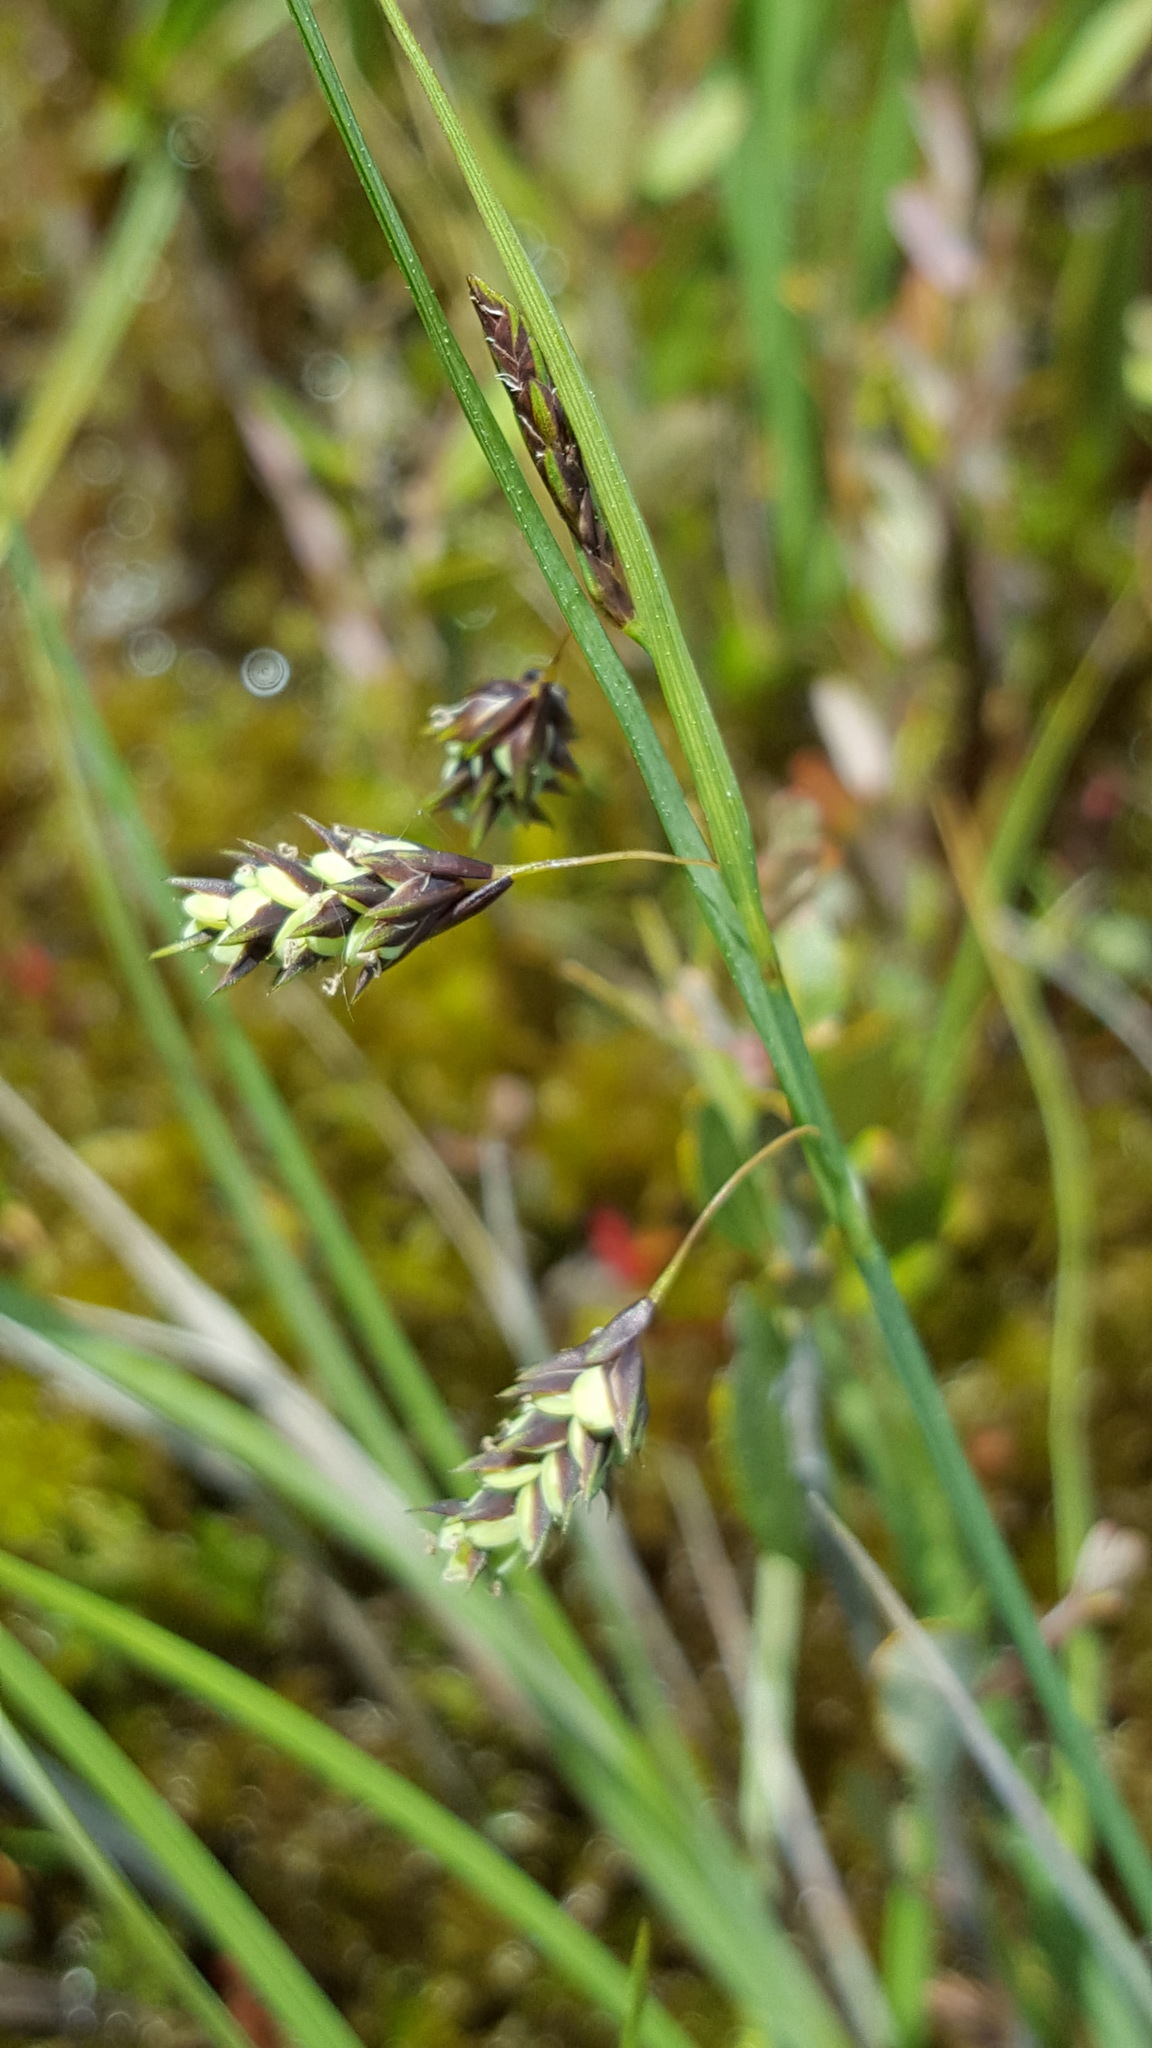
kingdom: Plantae
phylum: Tracheophyta
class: Liliopsida
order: Poales
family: Cyperaceae
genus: Carex
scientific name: Carex magellanica
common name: Bog sedge
